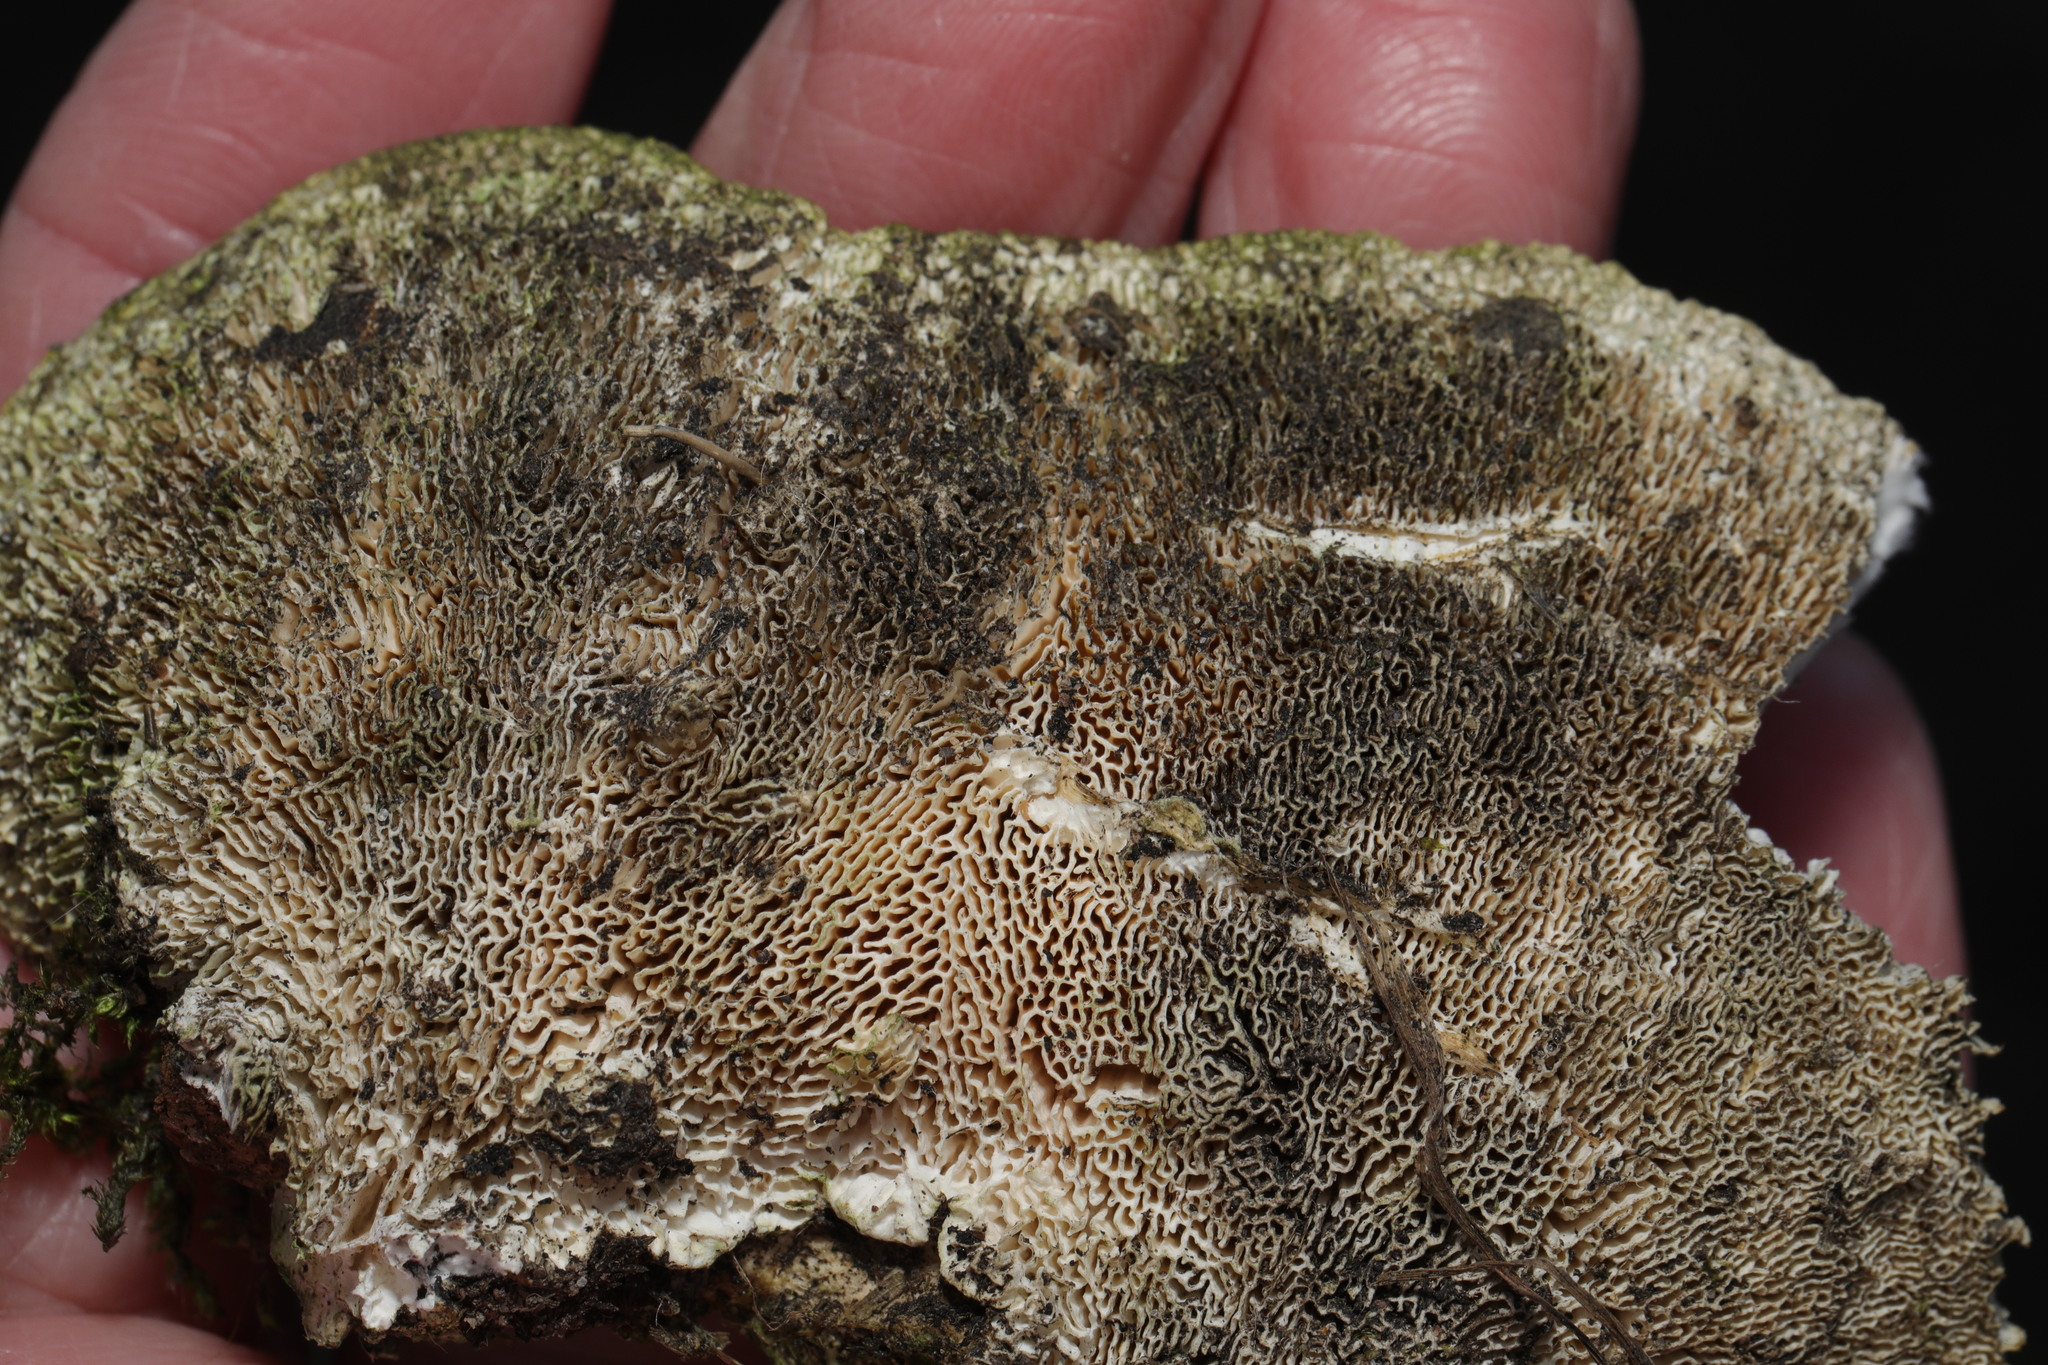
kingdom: Fungi
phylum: Basidiomycota
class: Agaricomycetes
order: Polyporales
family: Polyporaceae
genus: Trametes
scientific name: Trametes gibbosa
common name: Lumpy bracket
